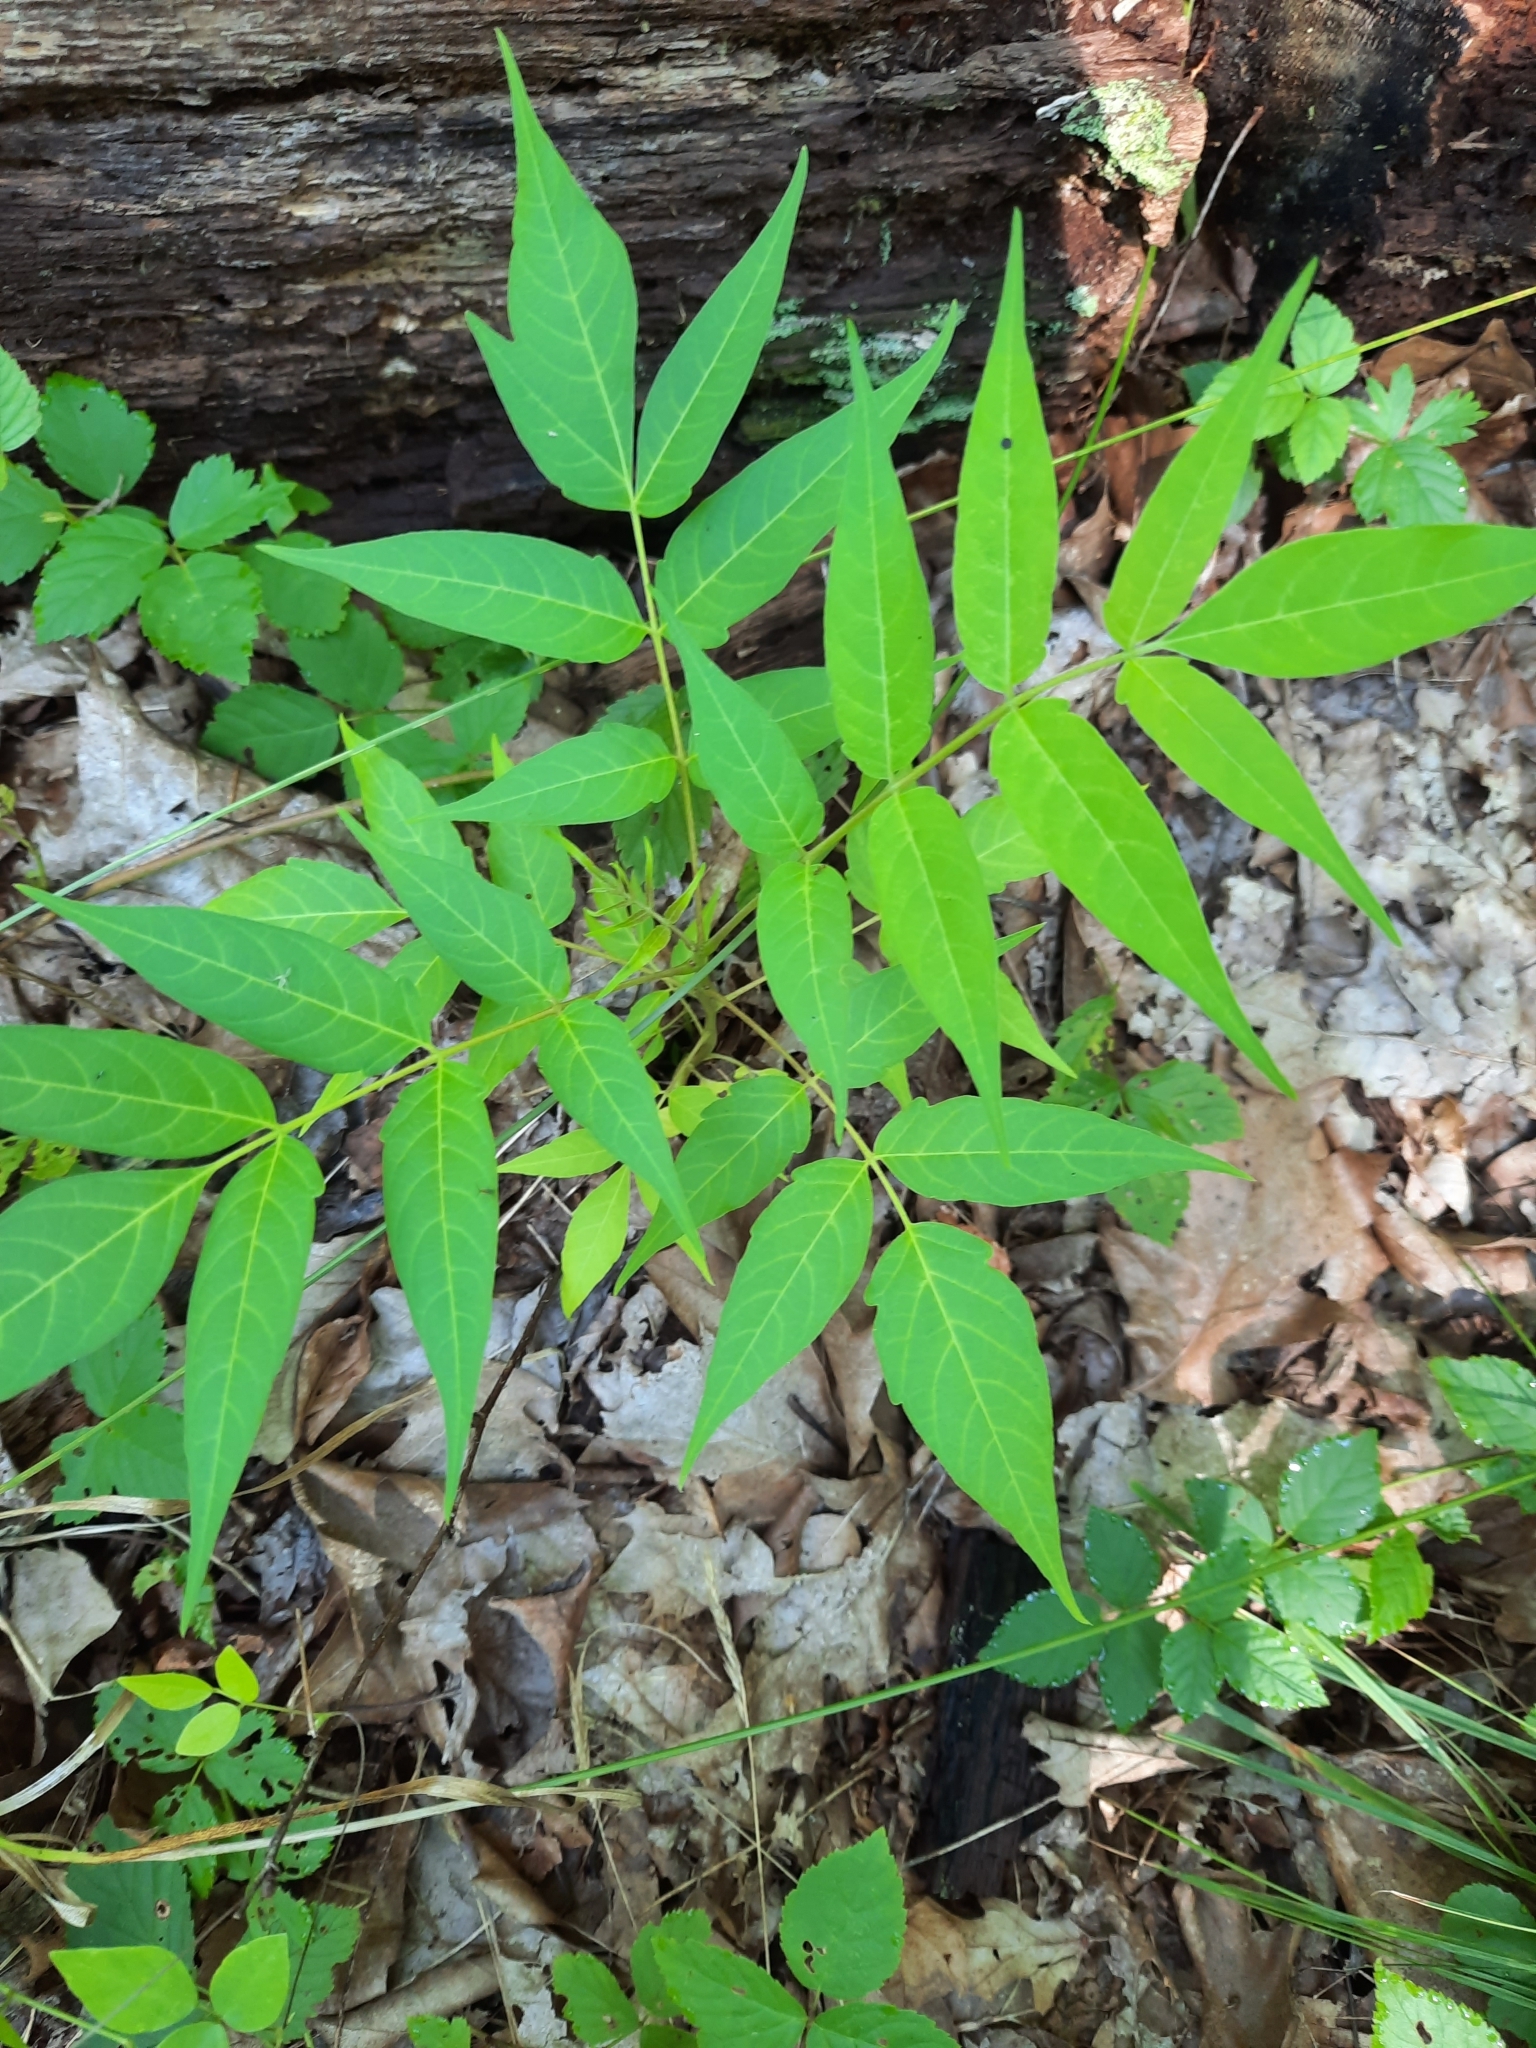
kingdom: Plantae
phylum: Tracheophyta
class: Magnoliopsida
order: Sapindales
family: Simaroubaceae
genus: Ailanthus
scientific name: Ailanthus altissima
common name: Tree-of-heaven
